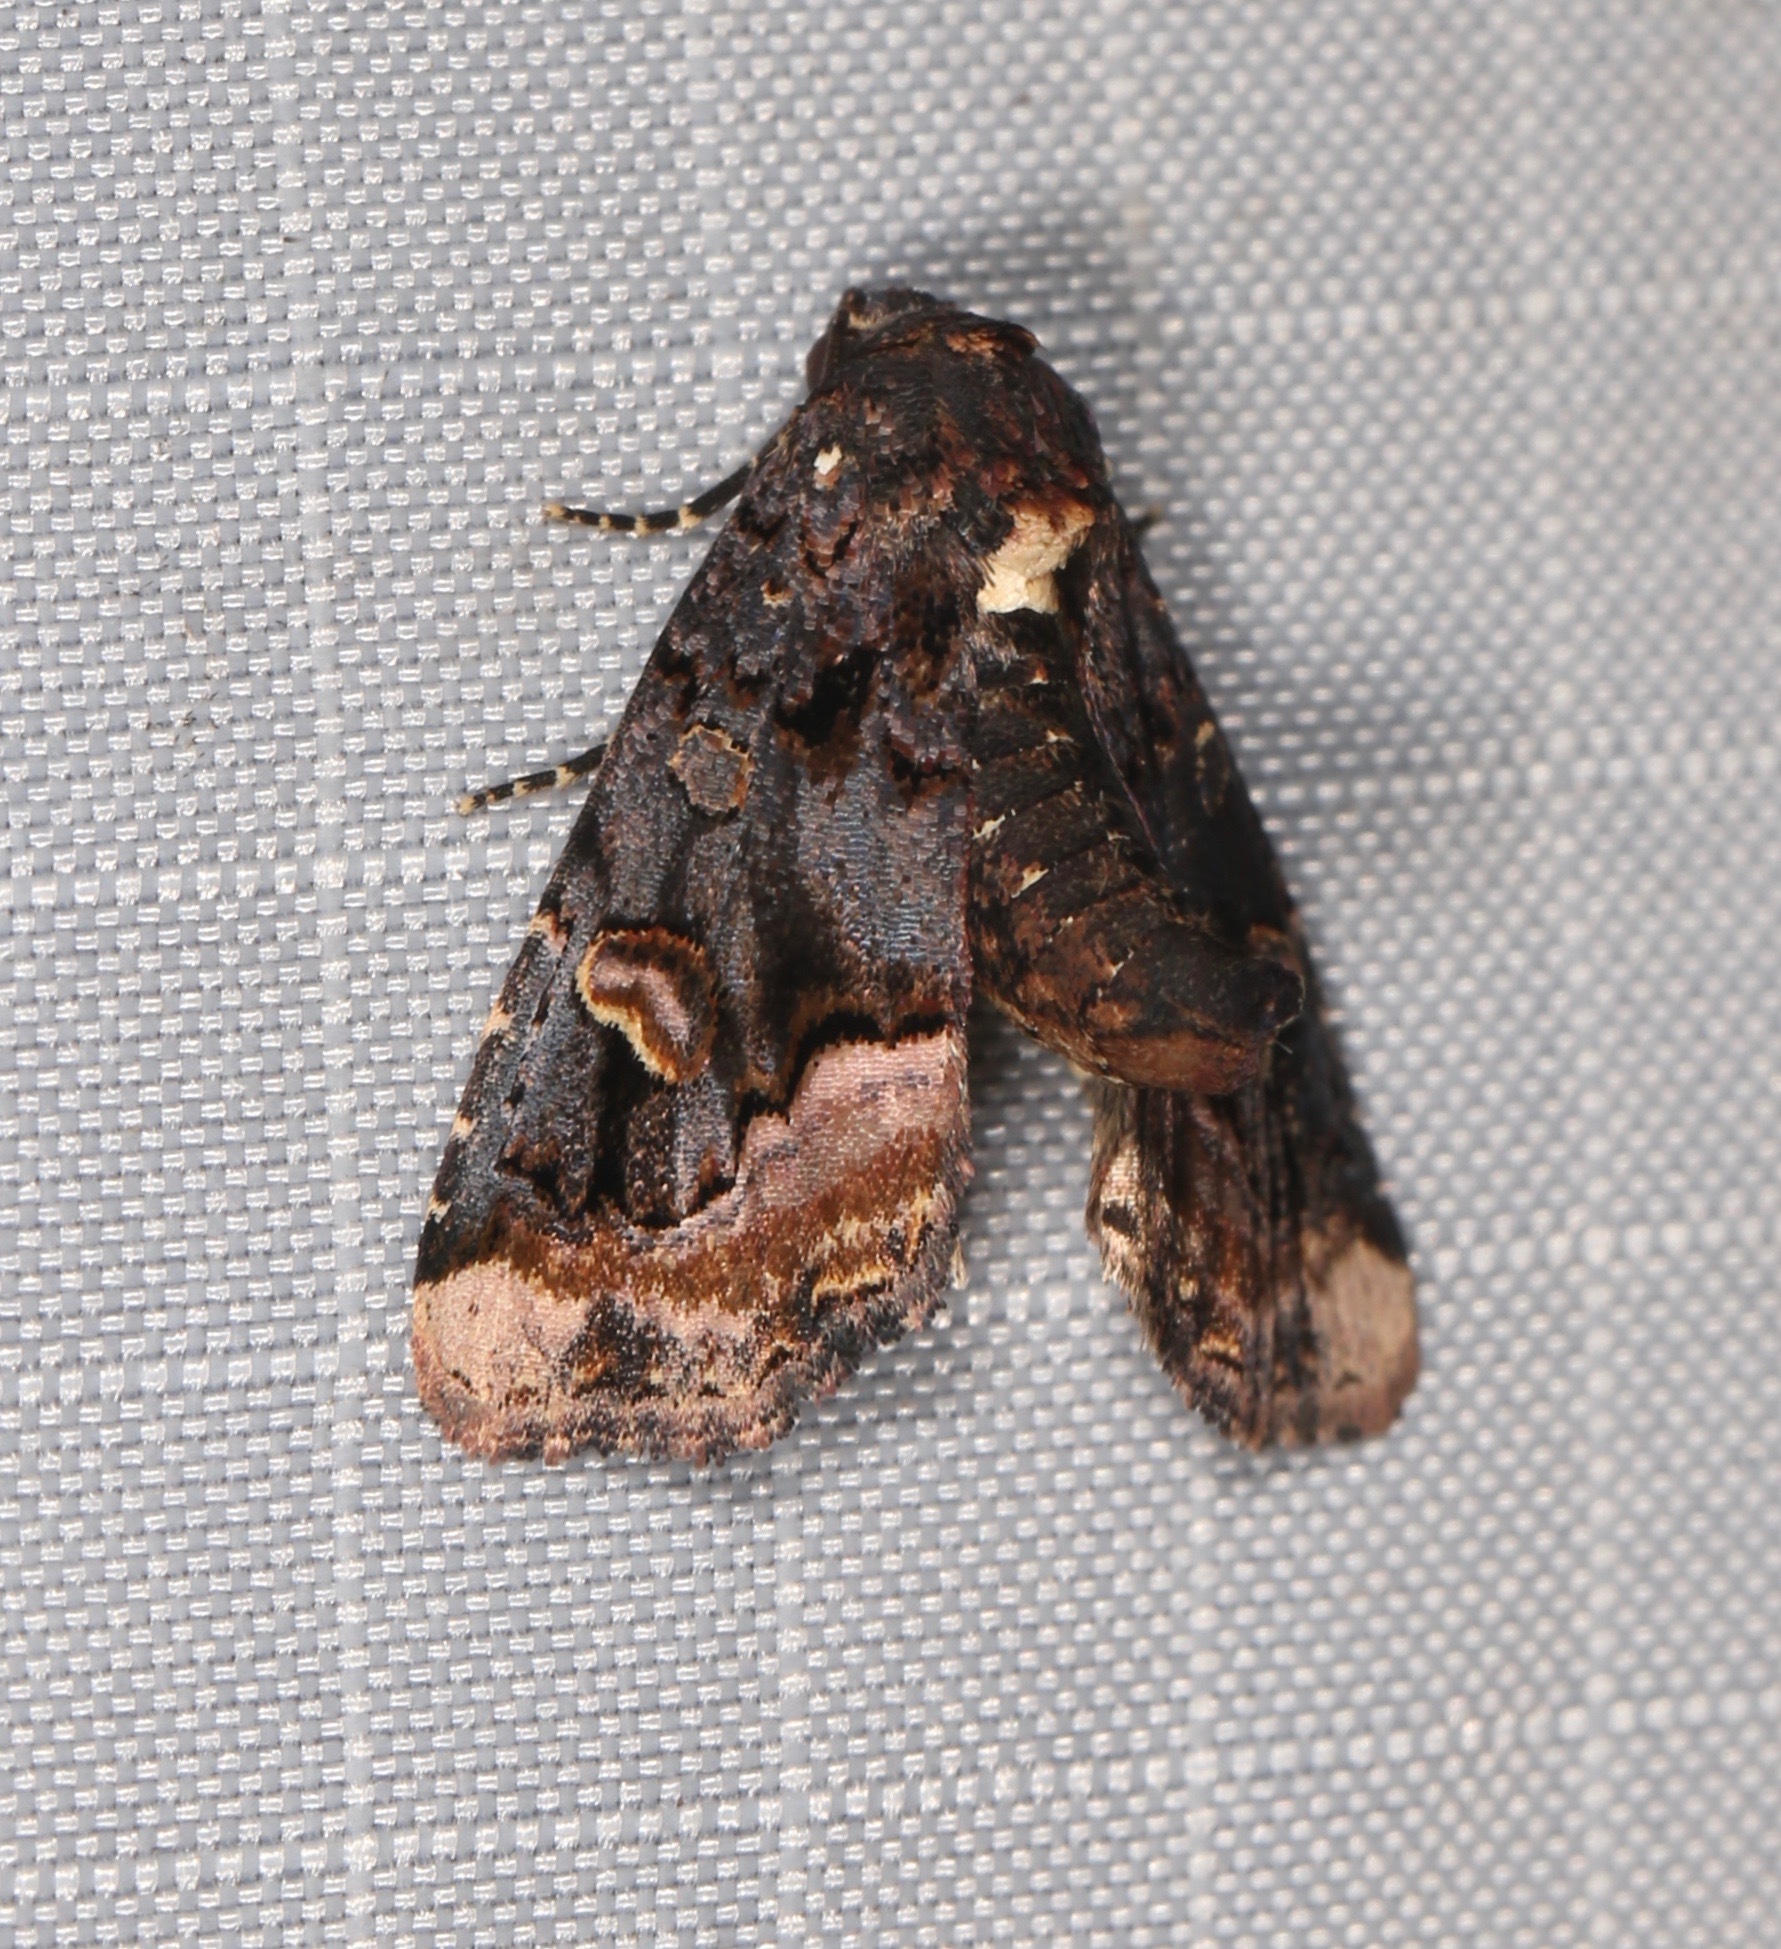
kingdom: Animalia
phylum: Arthropoda
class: Insecta
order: Lepidoptera
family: Noctuidae
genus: Homophoberia
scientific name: Homophoberia apicosa
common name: Black wedge-spot
